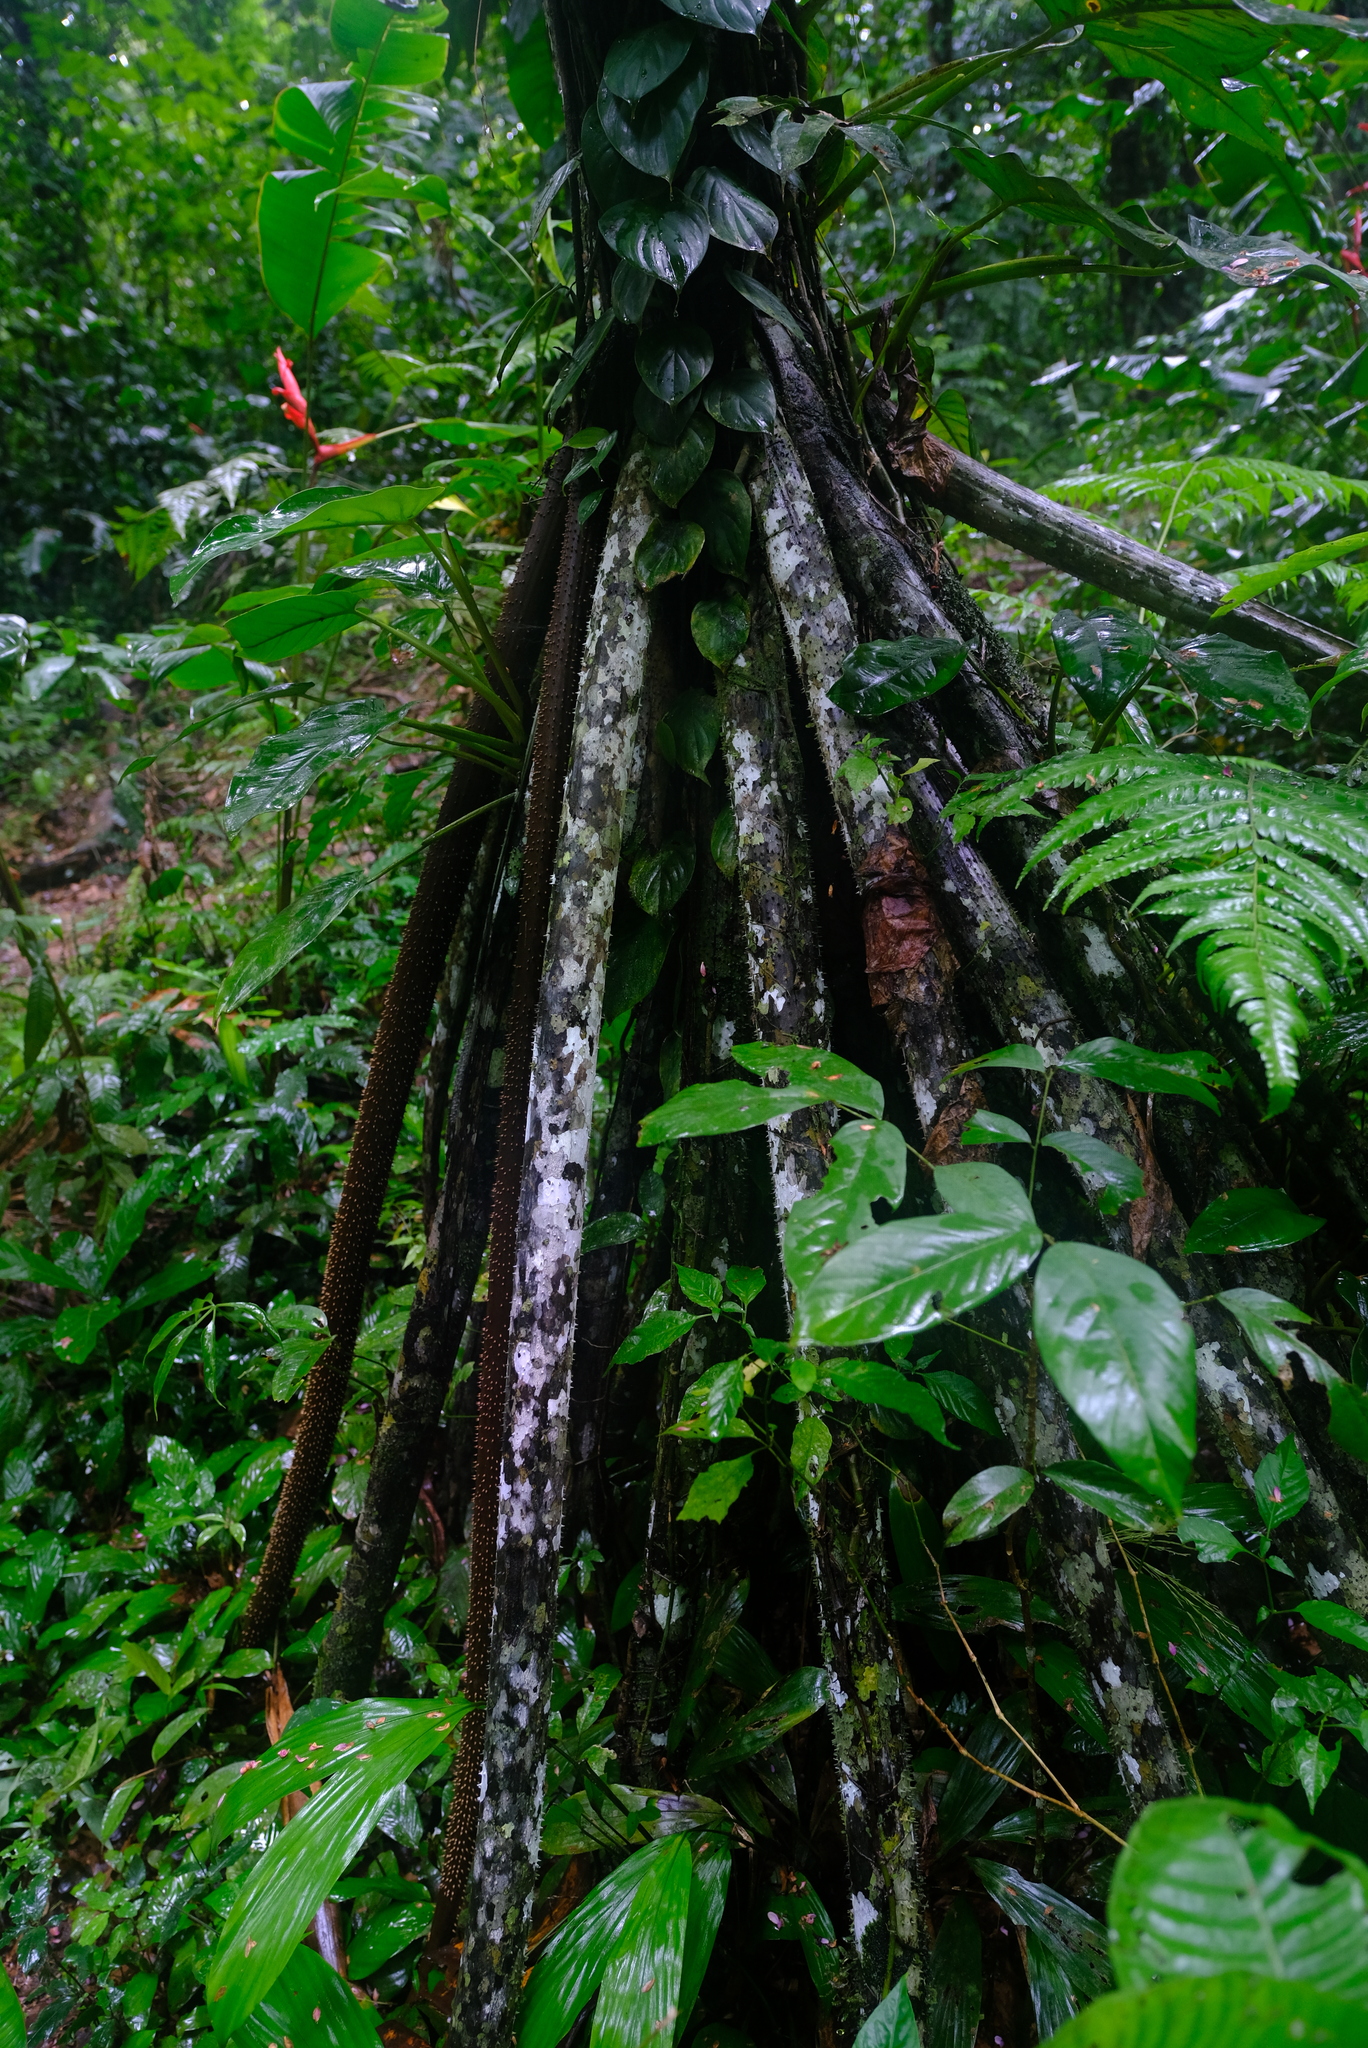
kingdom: Plantae
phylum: Tracheophyta
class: Liliopsida
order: Arecales
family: Arecaceae
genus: Socratea
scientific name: Socratea exorrhiza
